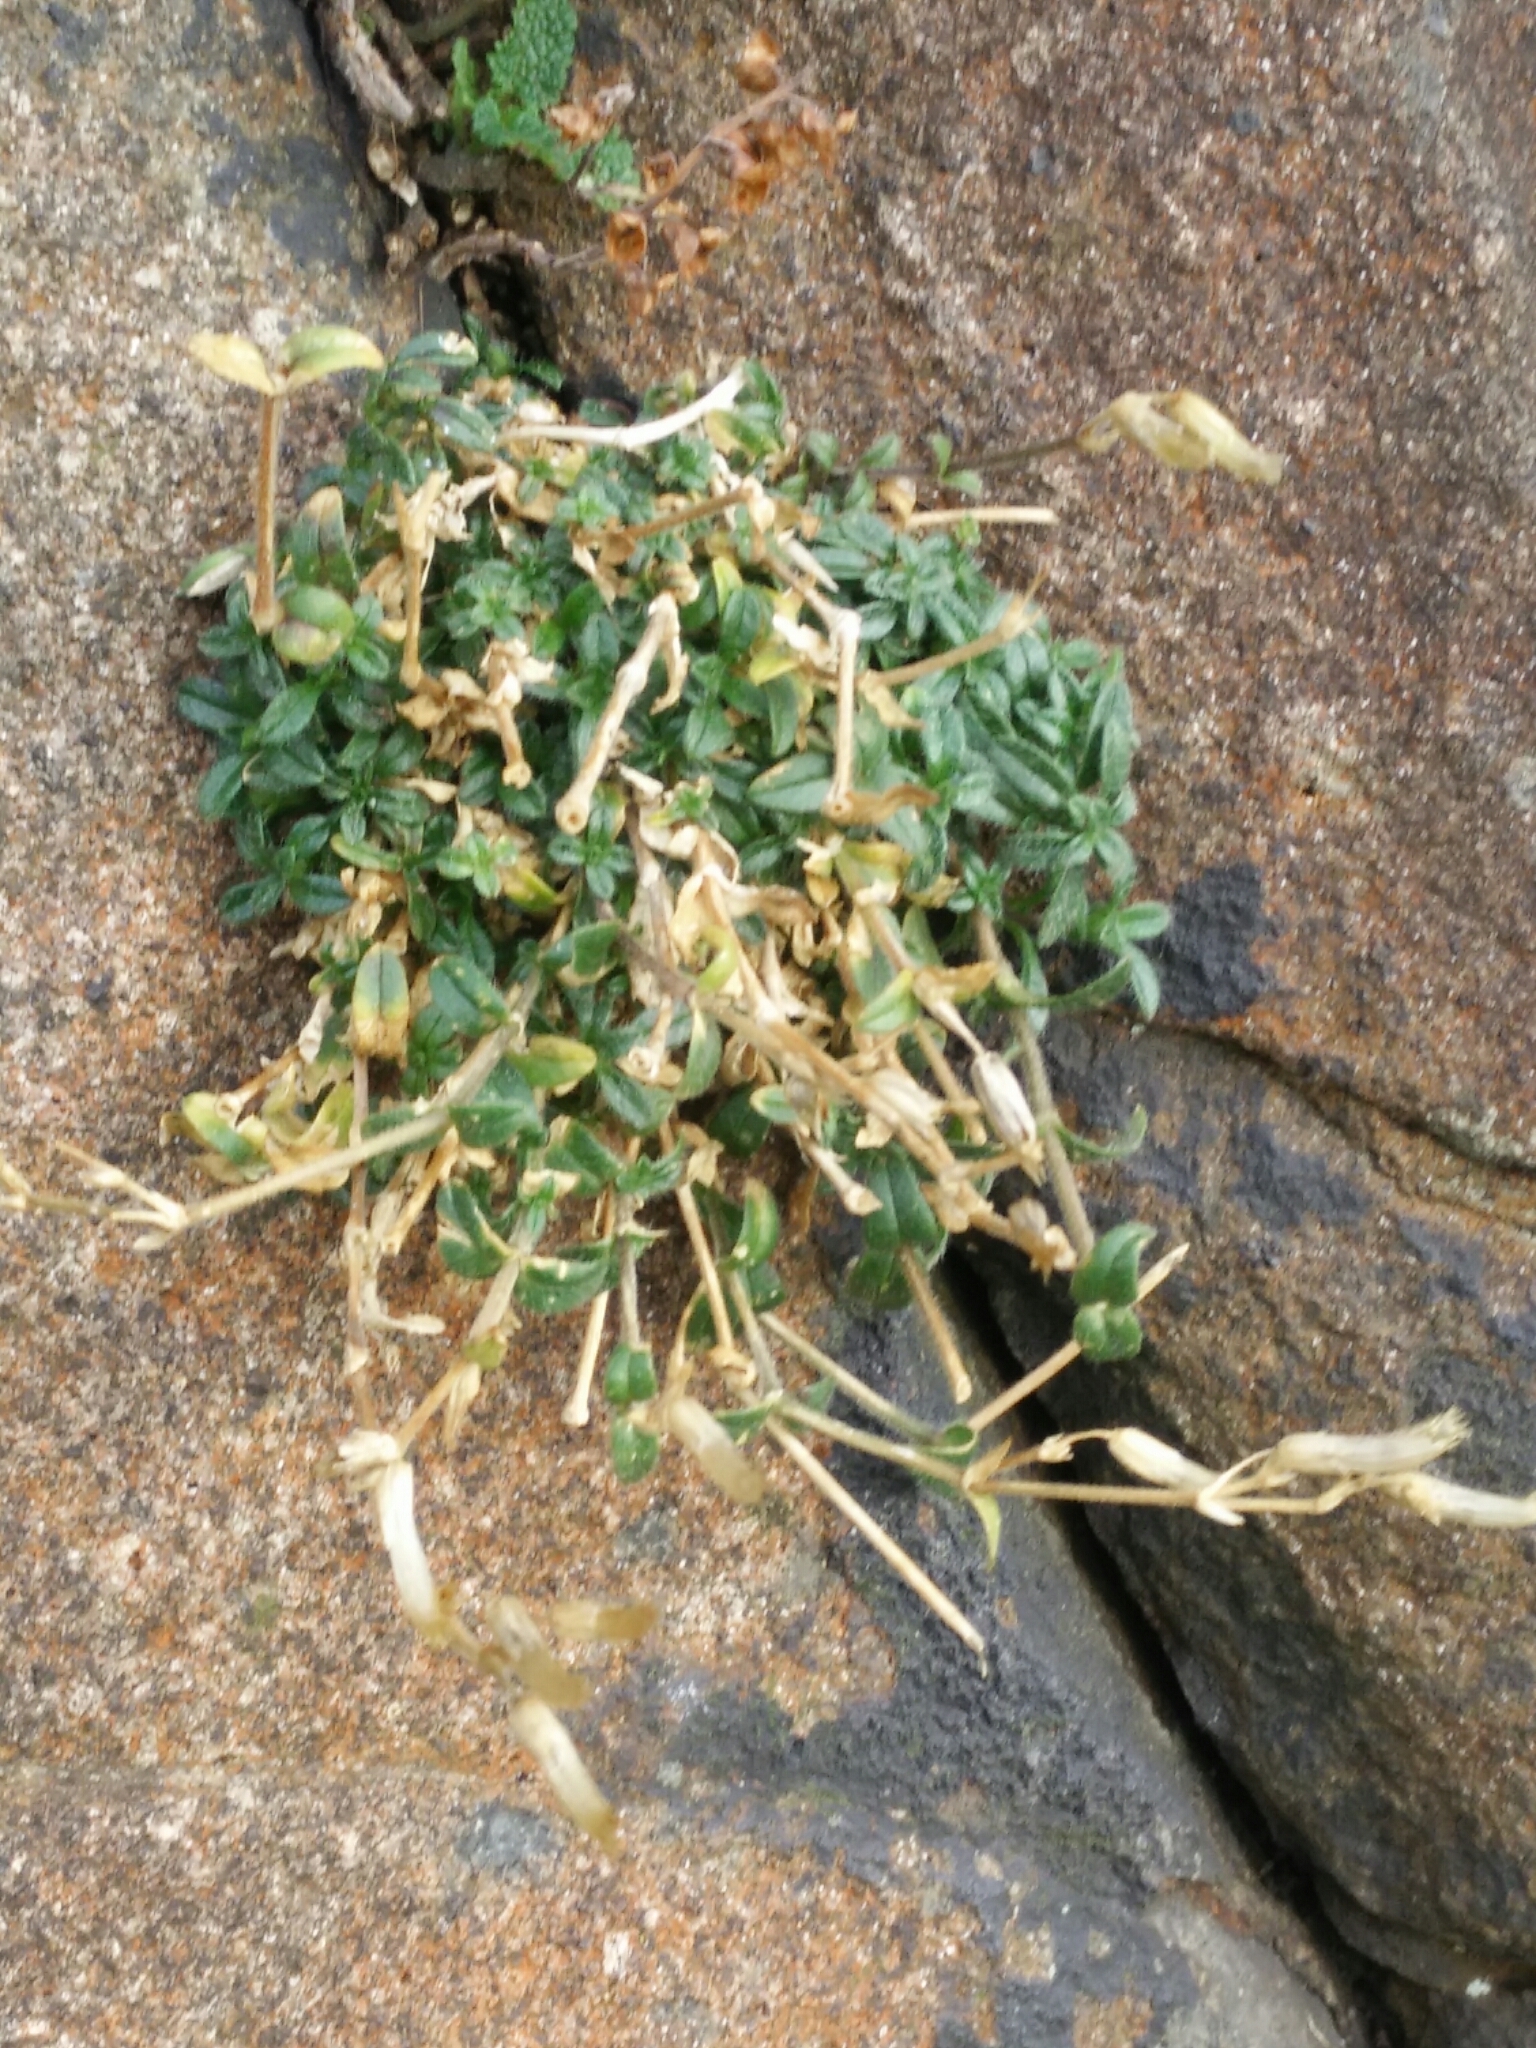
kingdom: Plantae
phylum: Tracheophyta
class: Magnoliopsida
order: Caryophyllales
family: Caryophyllaceae
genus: Cerastium
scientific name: Cerastium fontanum
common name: Common mouse-ear
